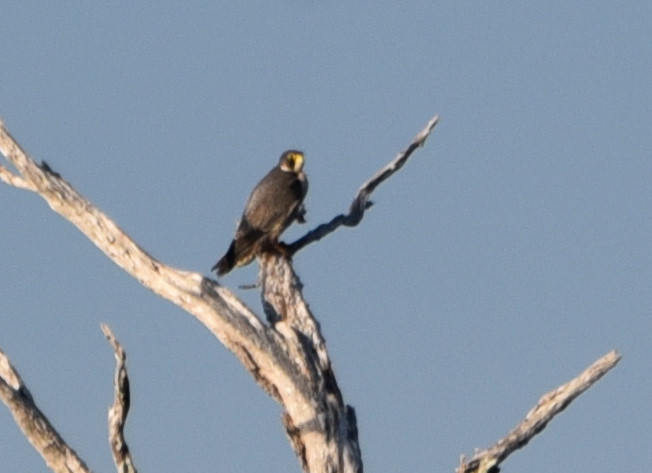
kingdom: Animalia
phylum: Chordata
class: Aves
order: Falconiformes
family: Falconidae
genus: Falco
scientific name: Falco peregrinus
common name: Peregrine falcon
